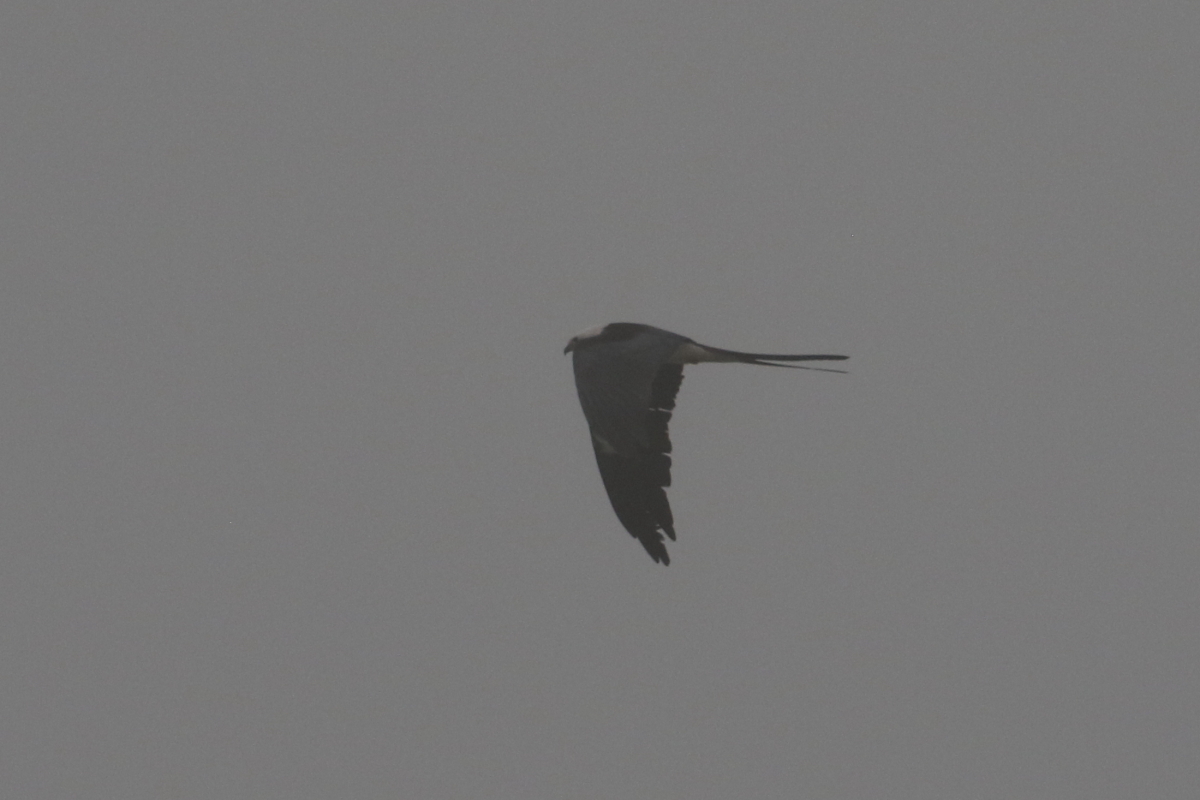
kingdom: Animalia
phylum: Chordata
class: Aves
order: Accipitriformes
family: Accipitridae
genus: Elanoides
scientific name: Elanoides forficatus
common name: Swallow-tailed kite
